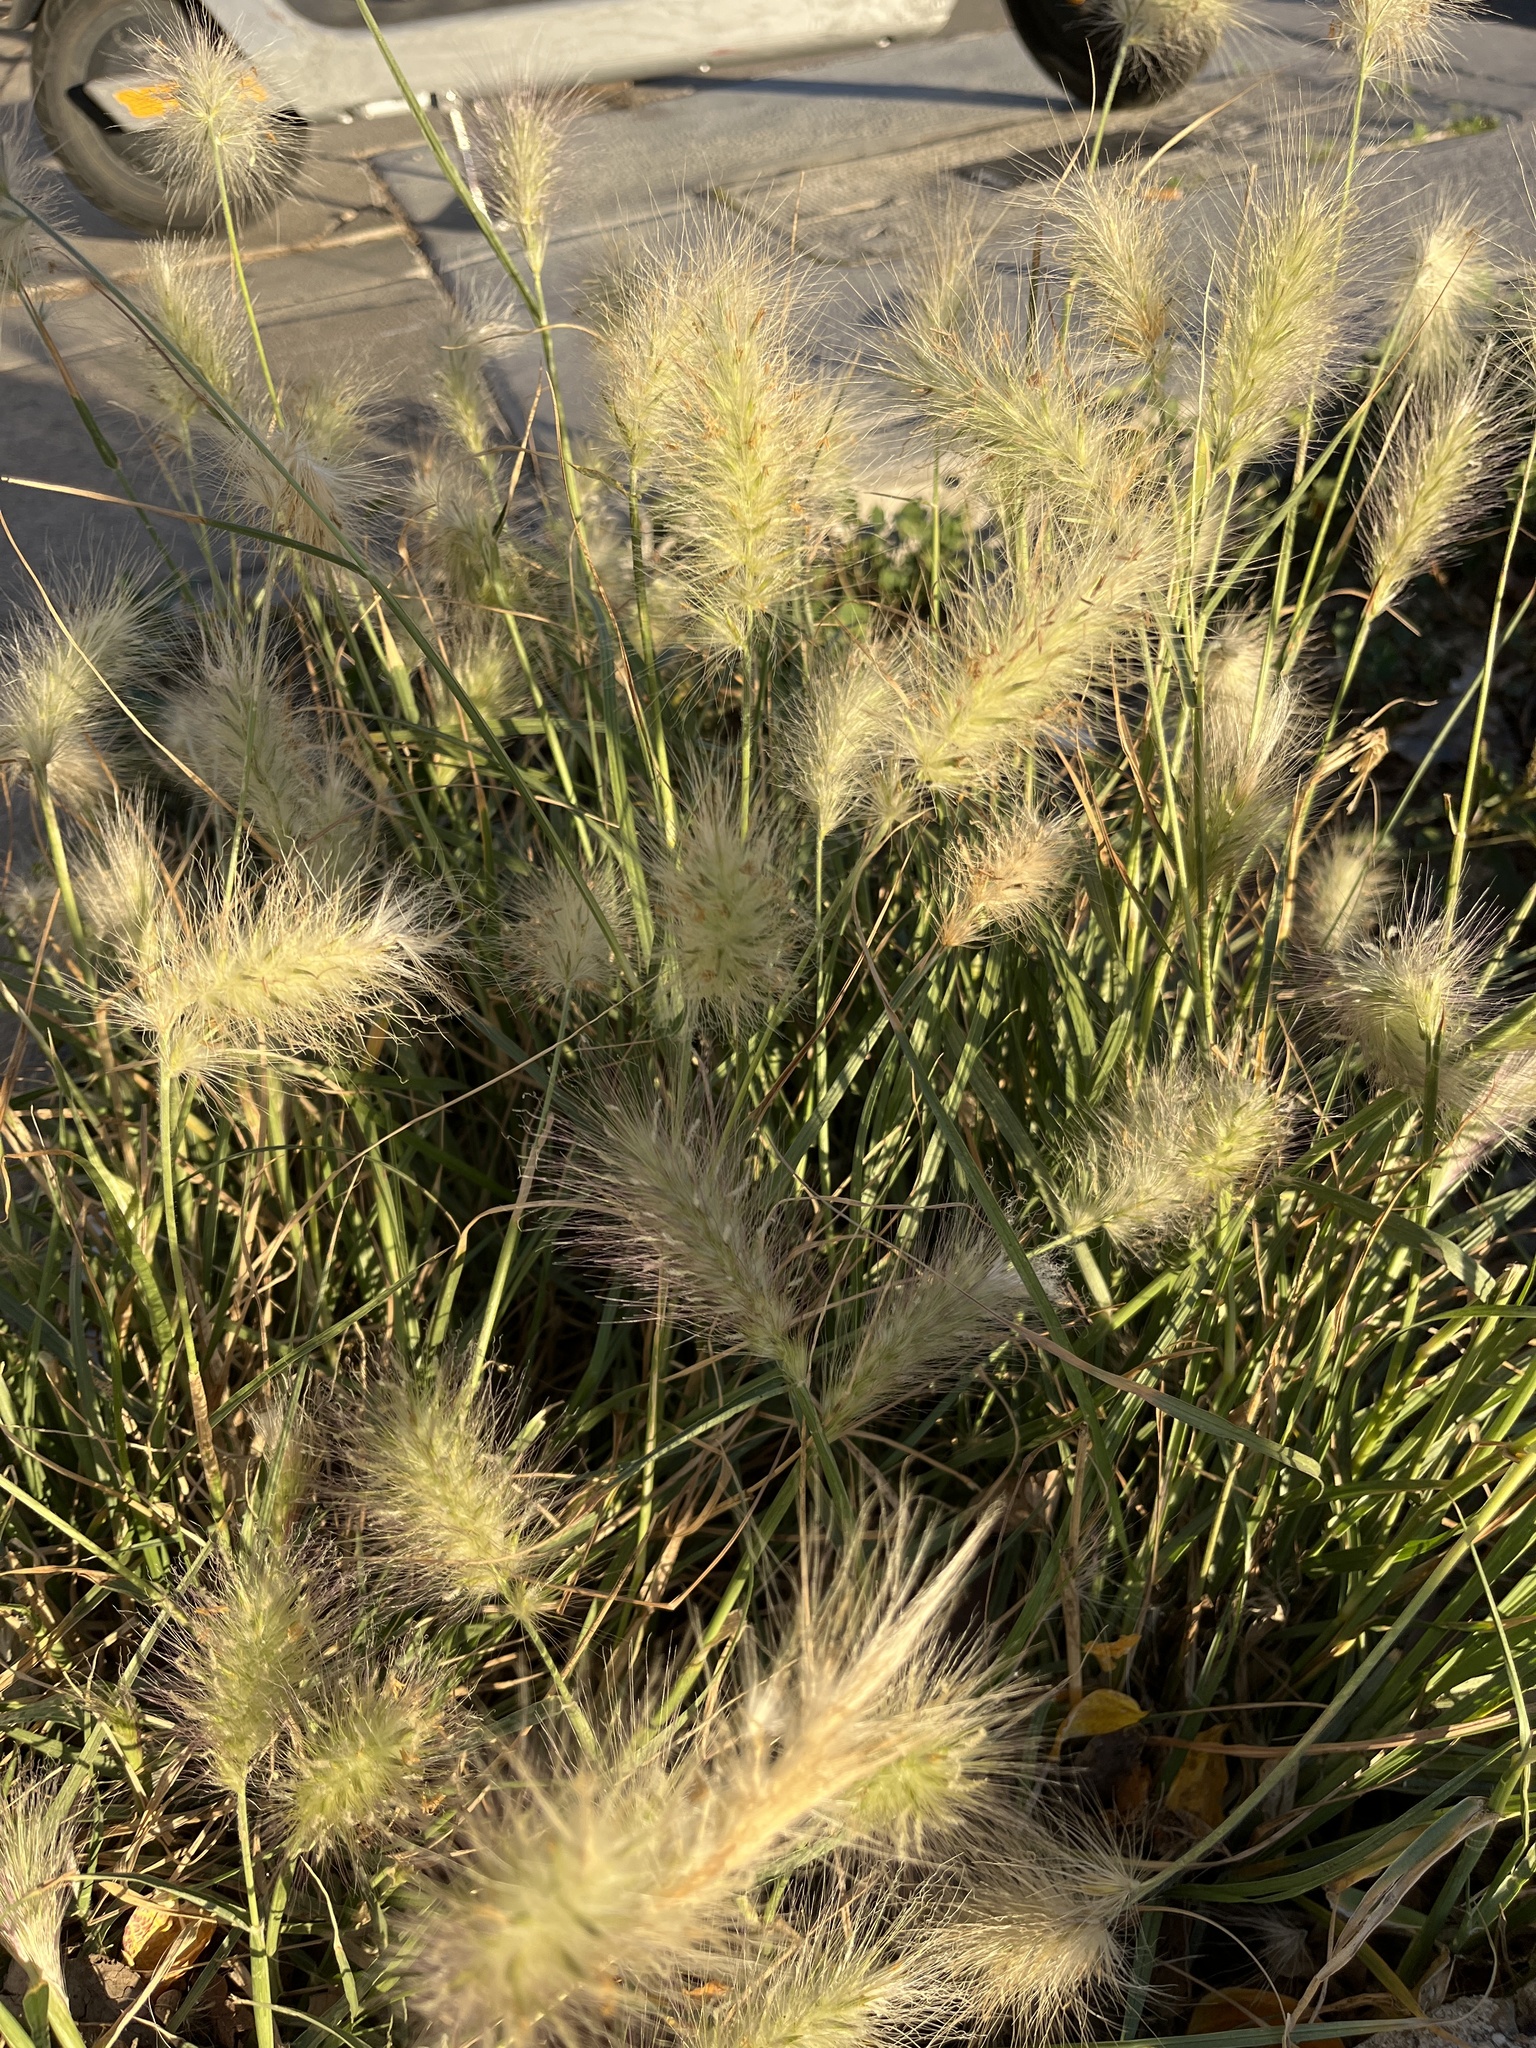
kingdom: Plantae
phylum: Tracheophyta
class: Liliopsida
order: Poales
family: Poaceae
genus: Cenchrus
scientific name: Cenchrus longisetus
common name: Feathertop
